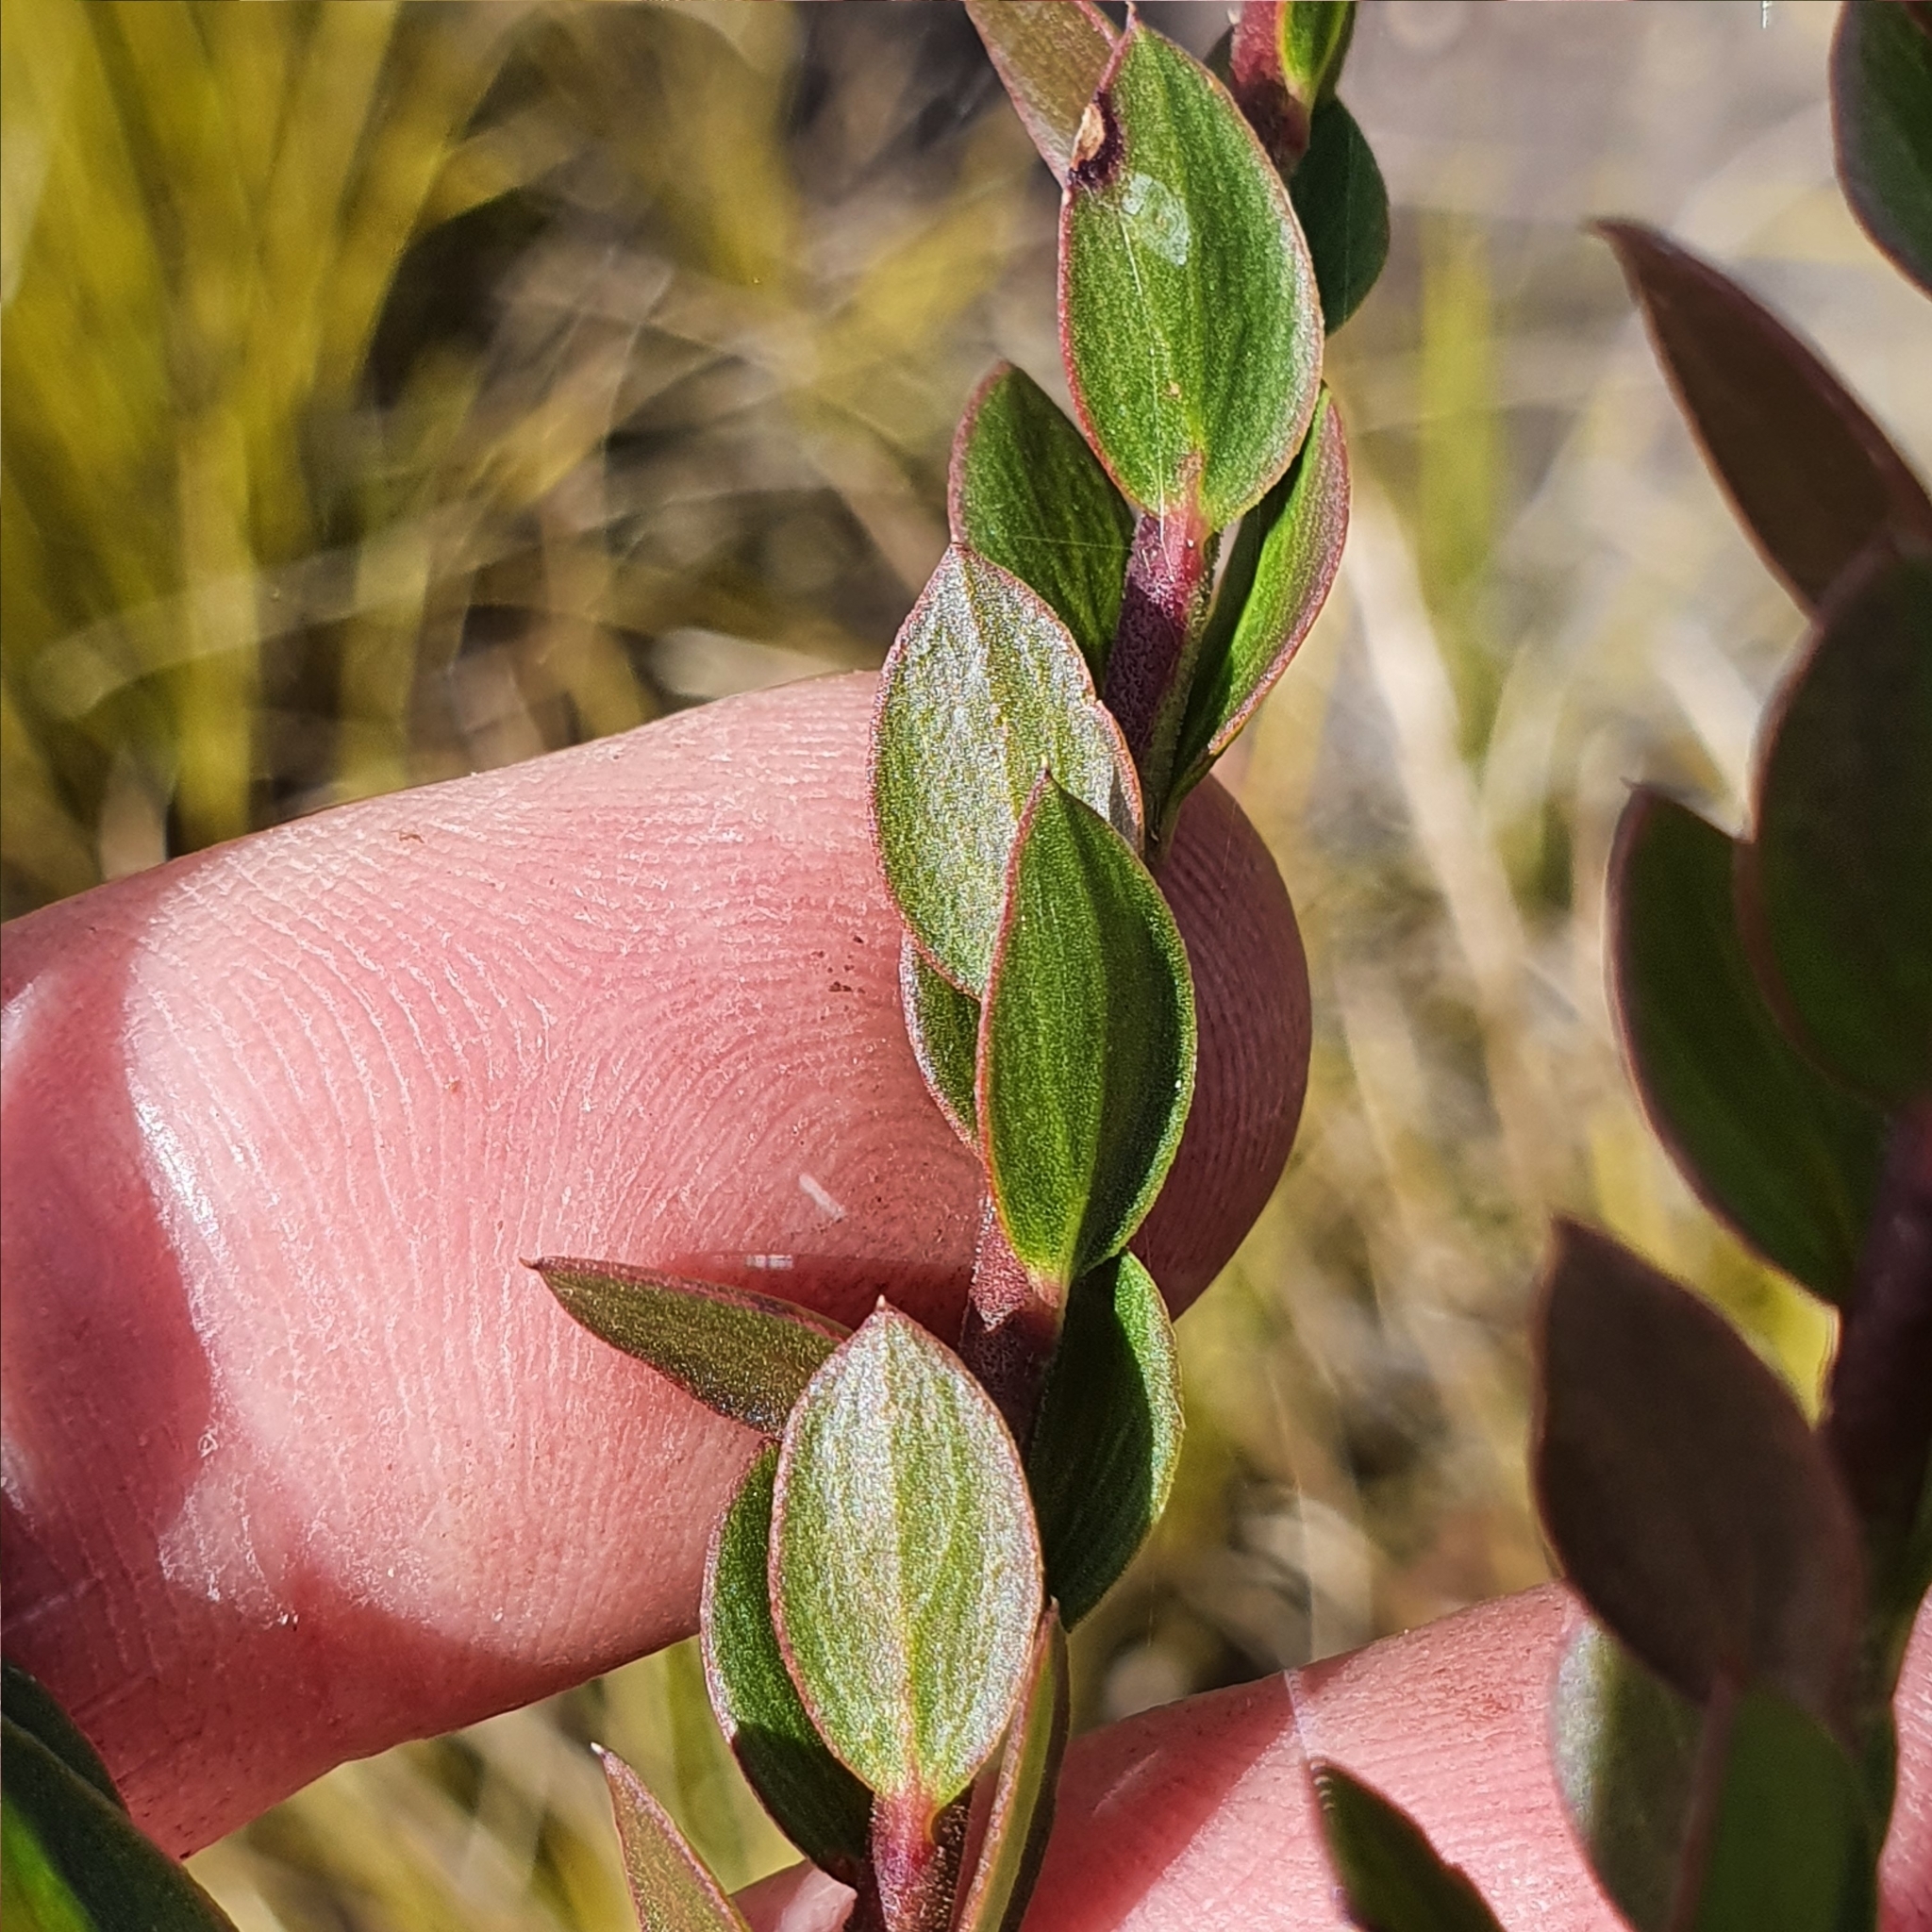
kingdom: Plantae
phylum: Tracheophyta
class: Magnoliopsida
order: Apiales
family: Apiaceae
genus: Platysace
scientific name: Platysace lanceolata
